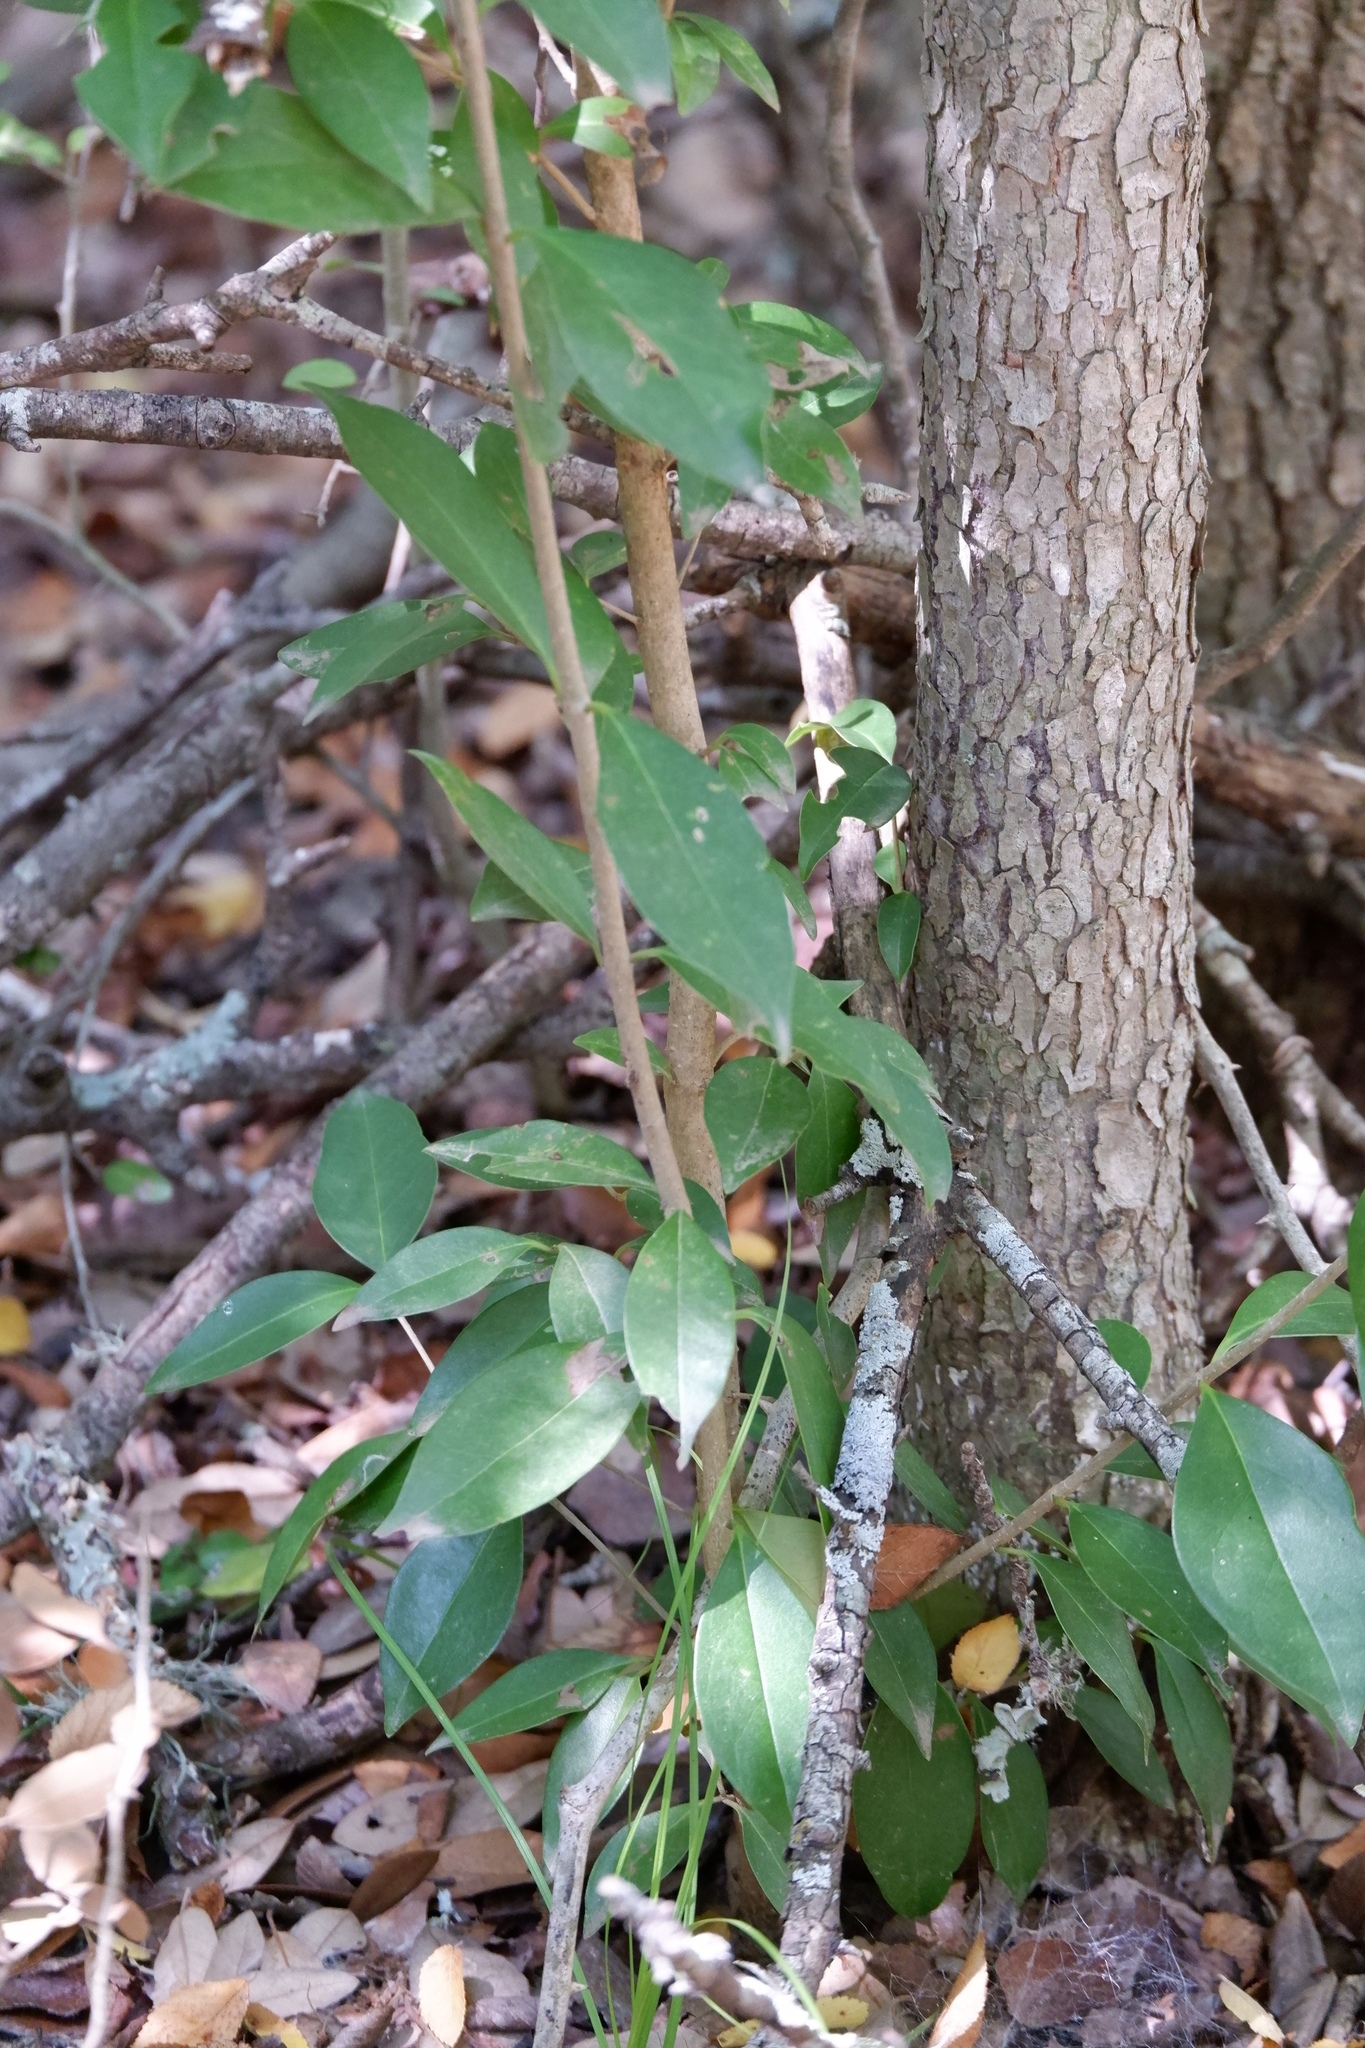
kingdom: Plantae
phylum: Tracheophyta
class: Magnoliopsida
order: Lamiales
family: Oleaceae
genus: Ligustrum
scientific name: Ligustrum lucidum
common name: Glossy privet
